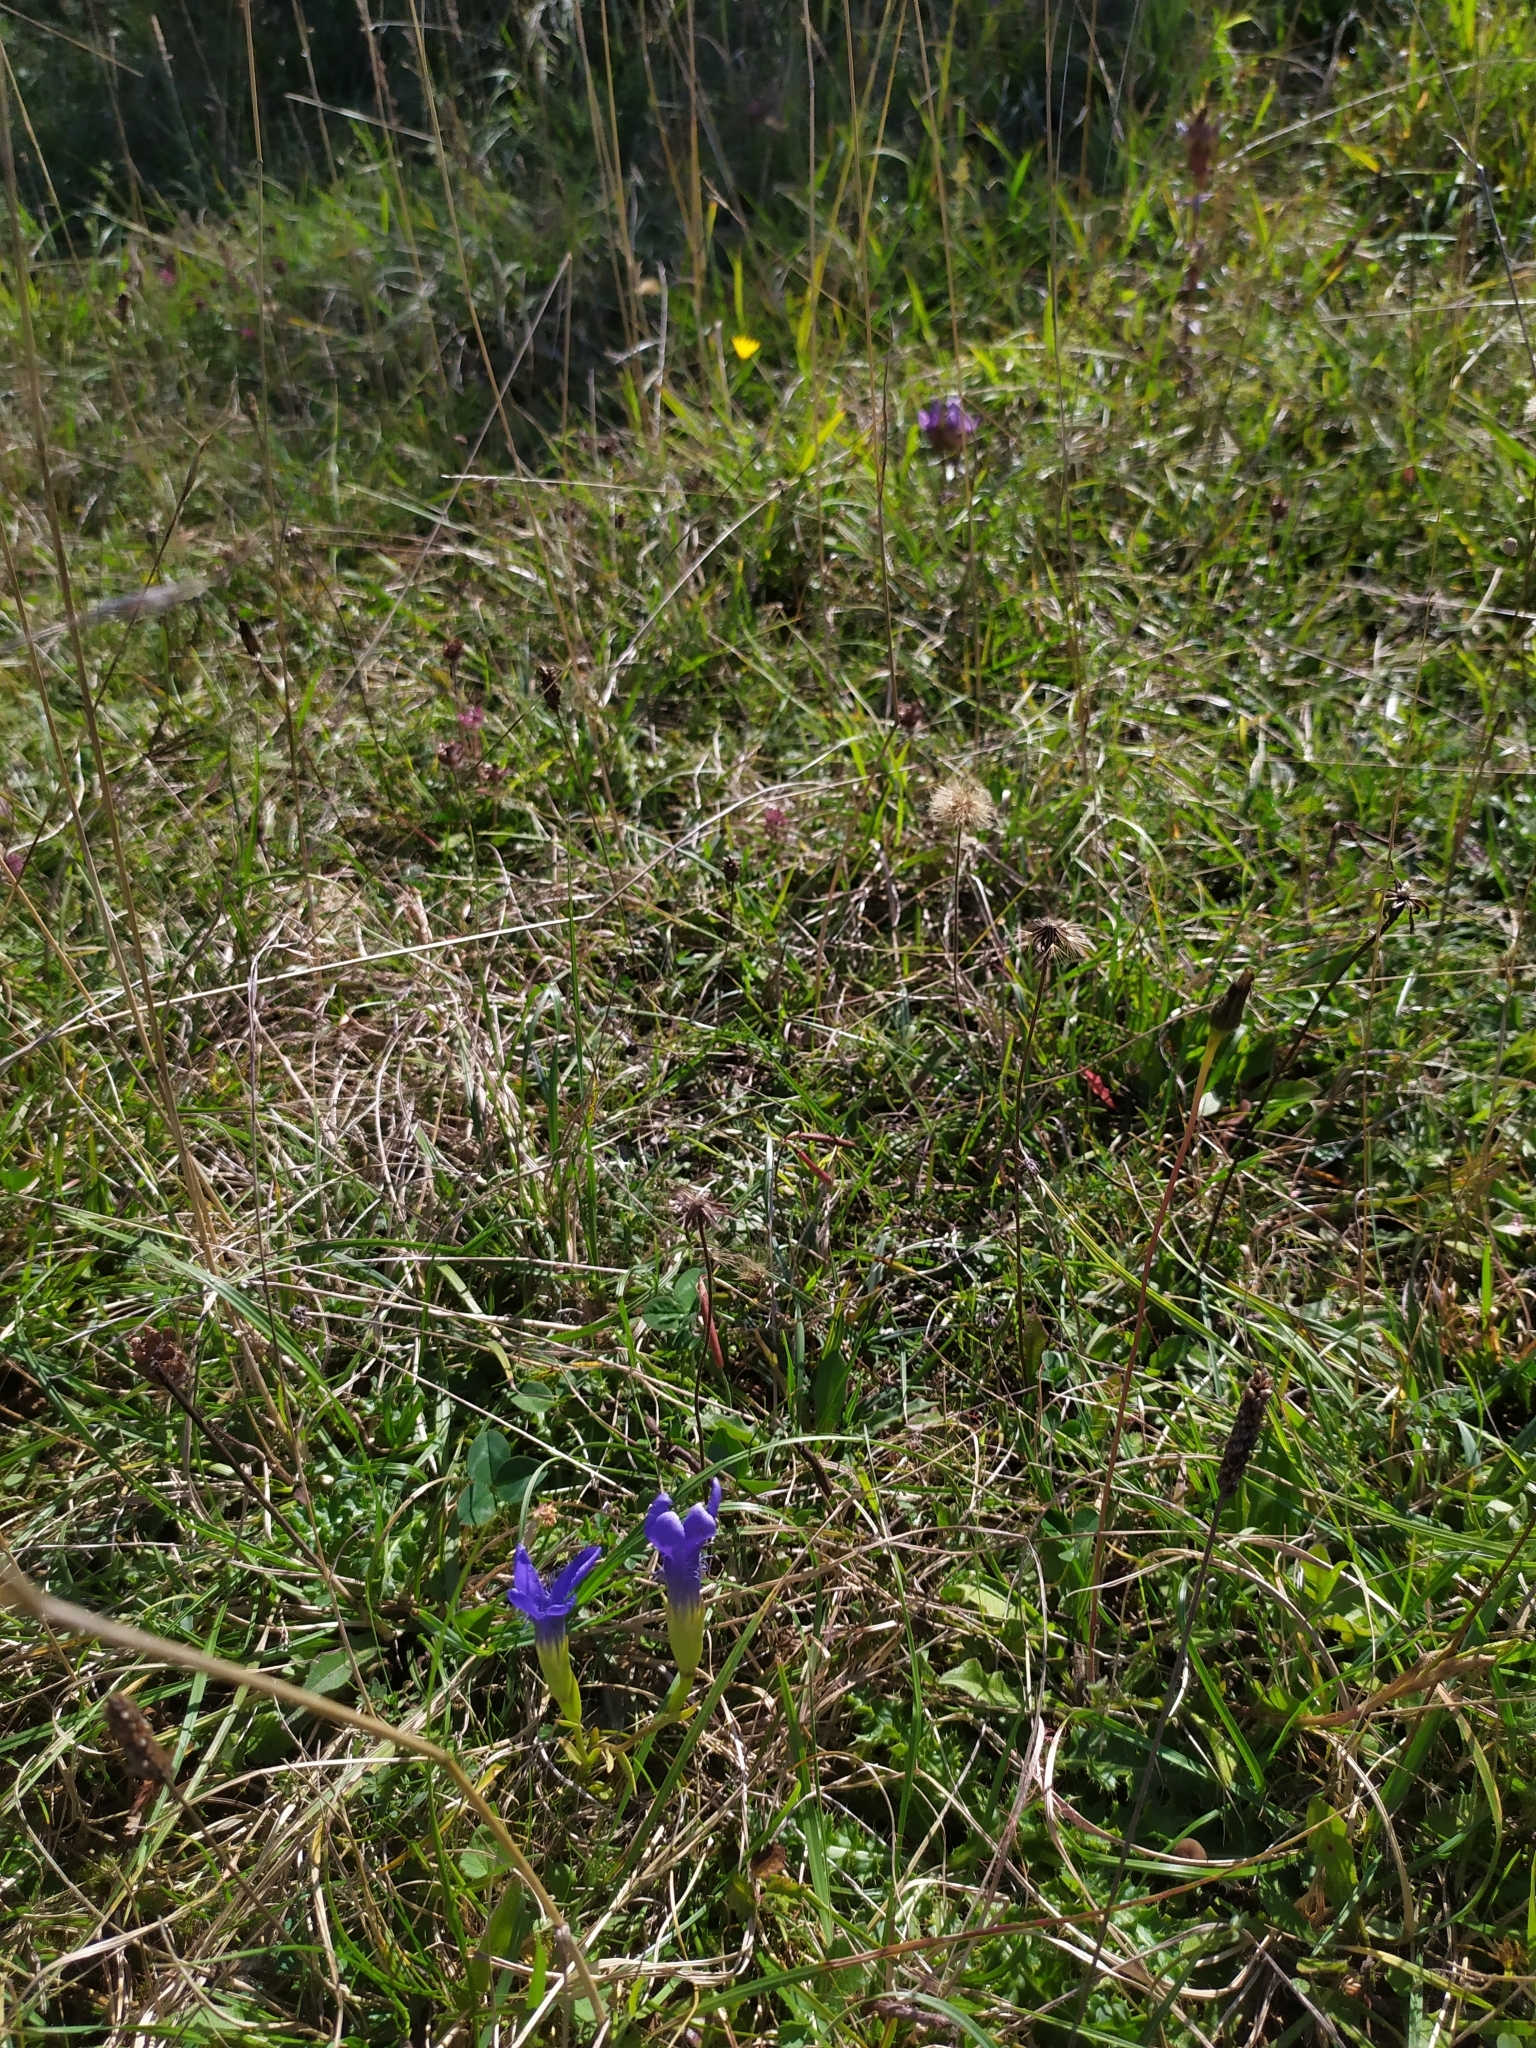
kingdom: Plantae
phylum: Tracheophyta
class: Magnoliopsida
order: Gentianales
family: Gentianaceae
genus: Gentianopsis
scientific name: Gentianopsis ciliata
